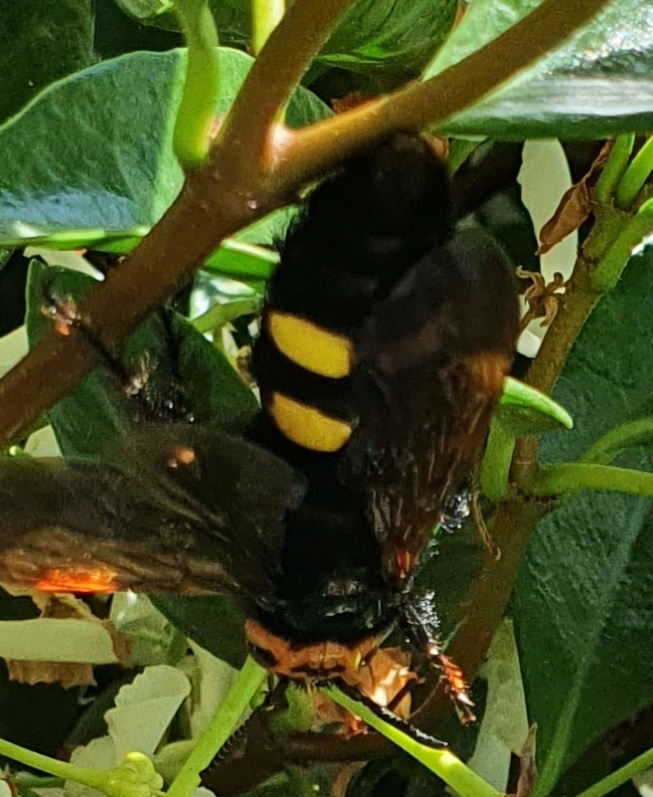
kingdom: Animalia
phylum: Arthropoda
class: Insecta
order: Hymenoptera
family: Scoliidae
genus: Megascolia
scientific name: Megascolia maculata
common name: Mammoth wasp
